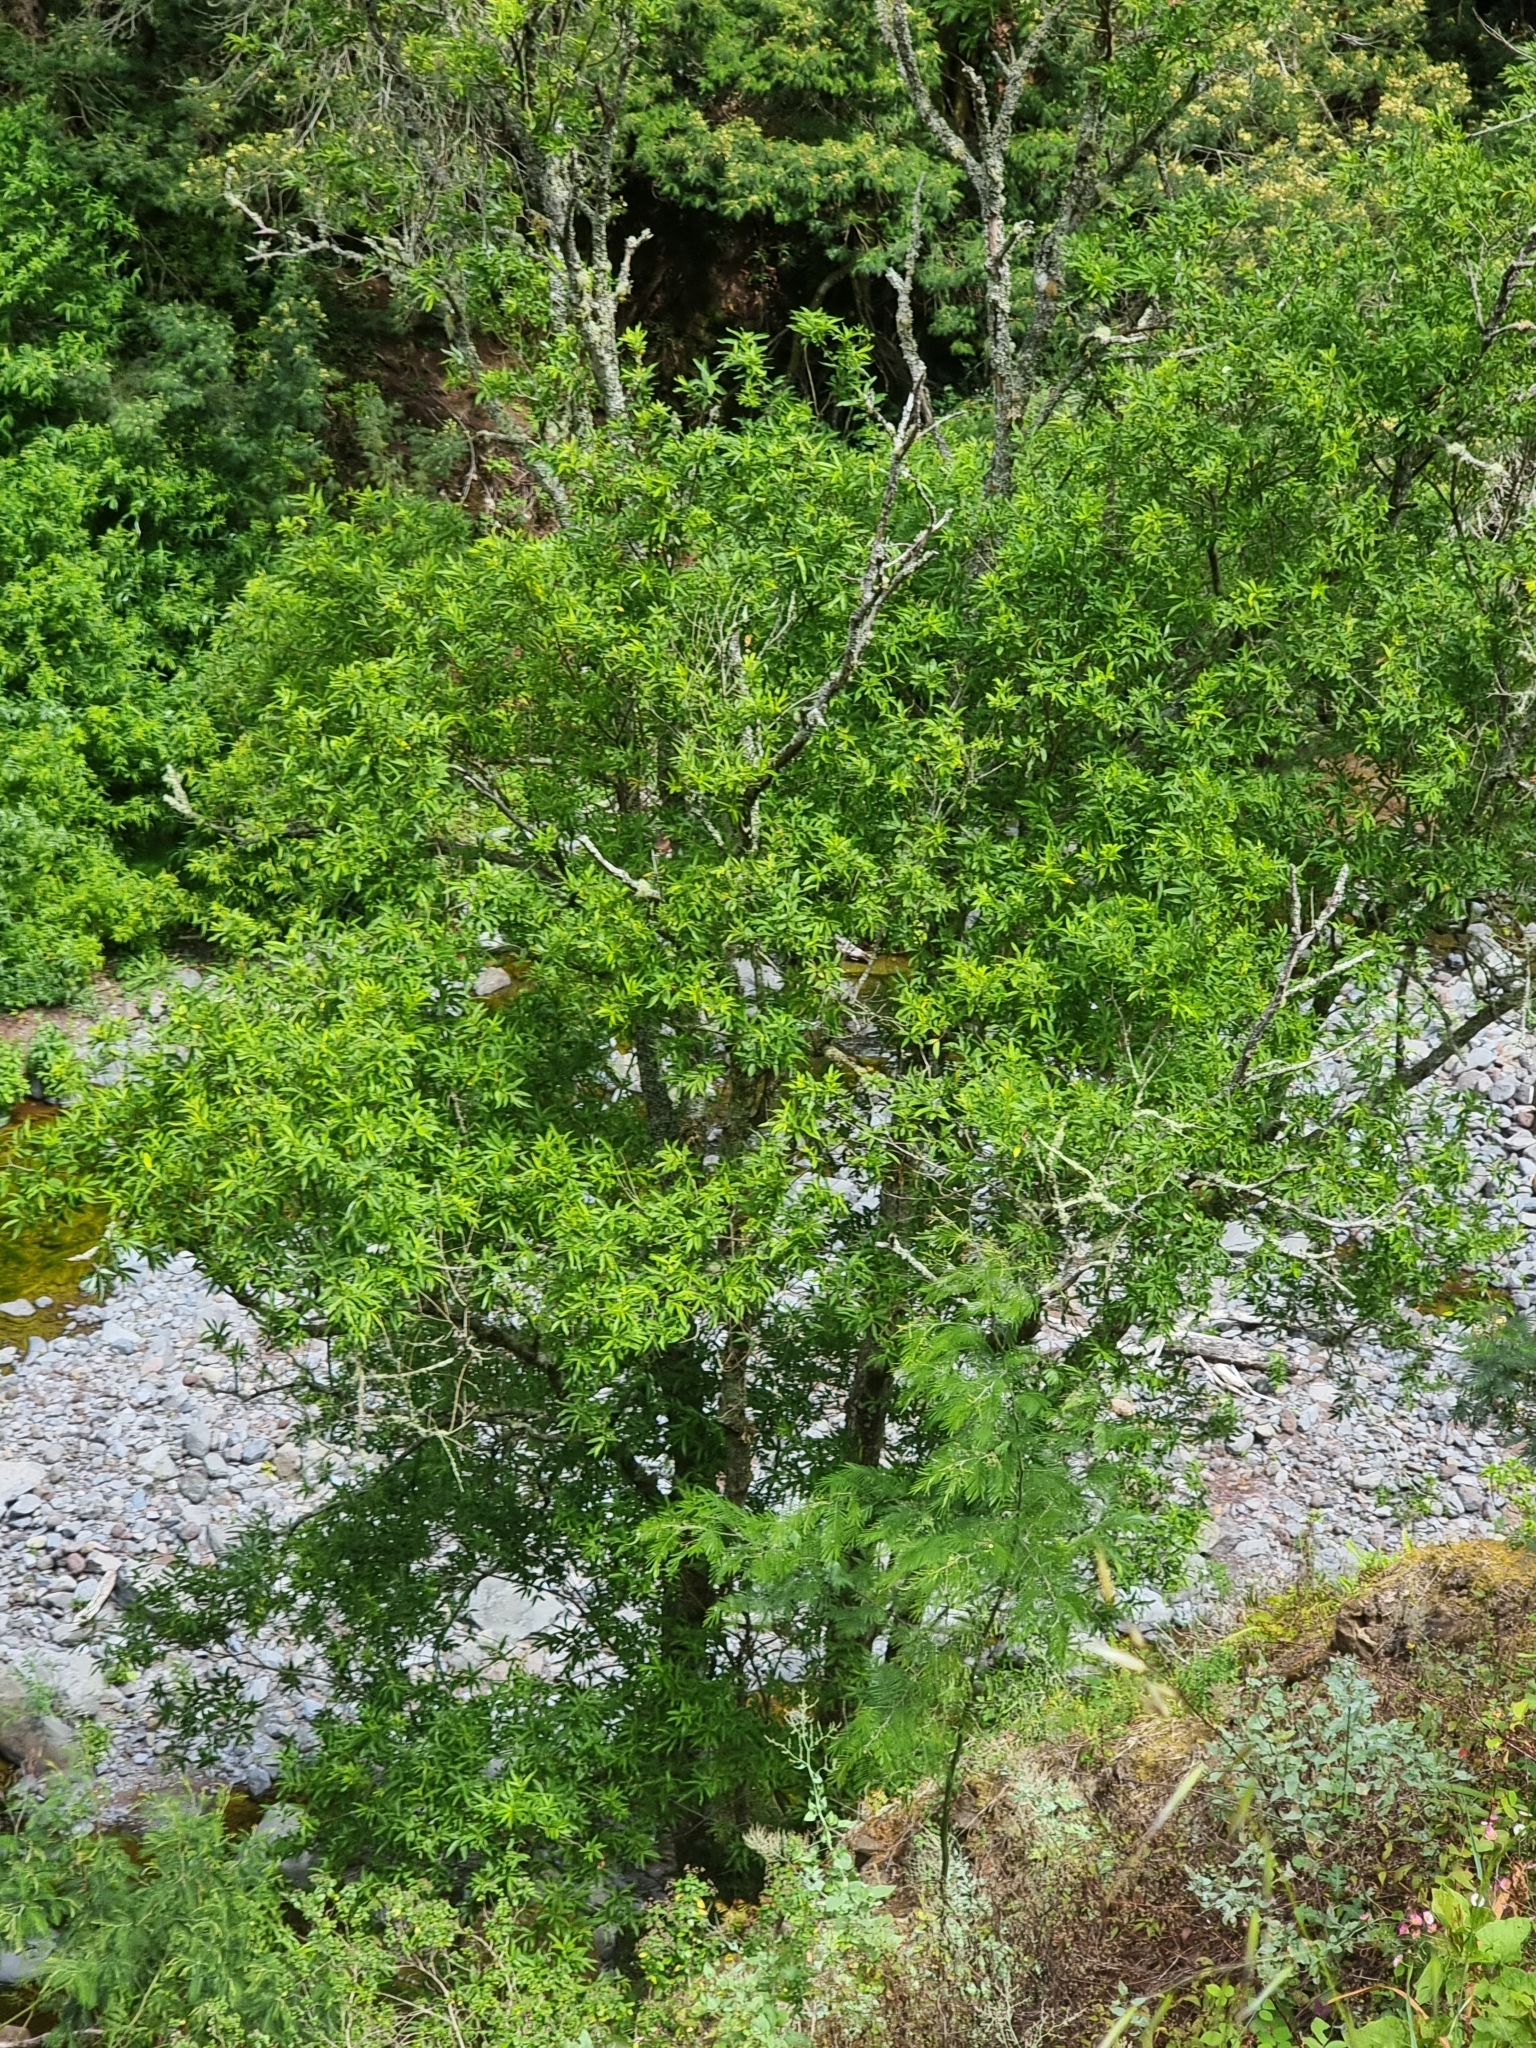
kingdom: Plantae
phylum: Tracheophyta
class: Magnoliopsida
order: Malpighiales
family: Salicaceae
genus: Salix
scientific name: Salix canariensis
